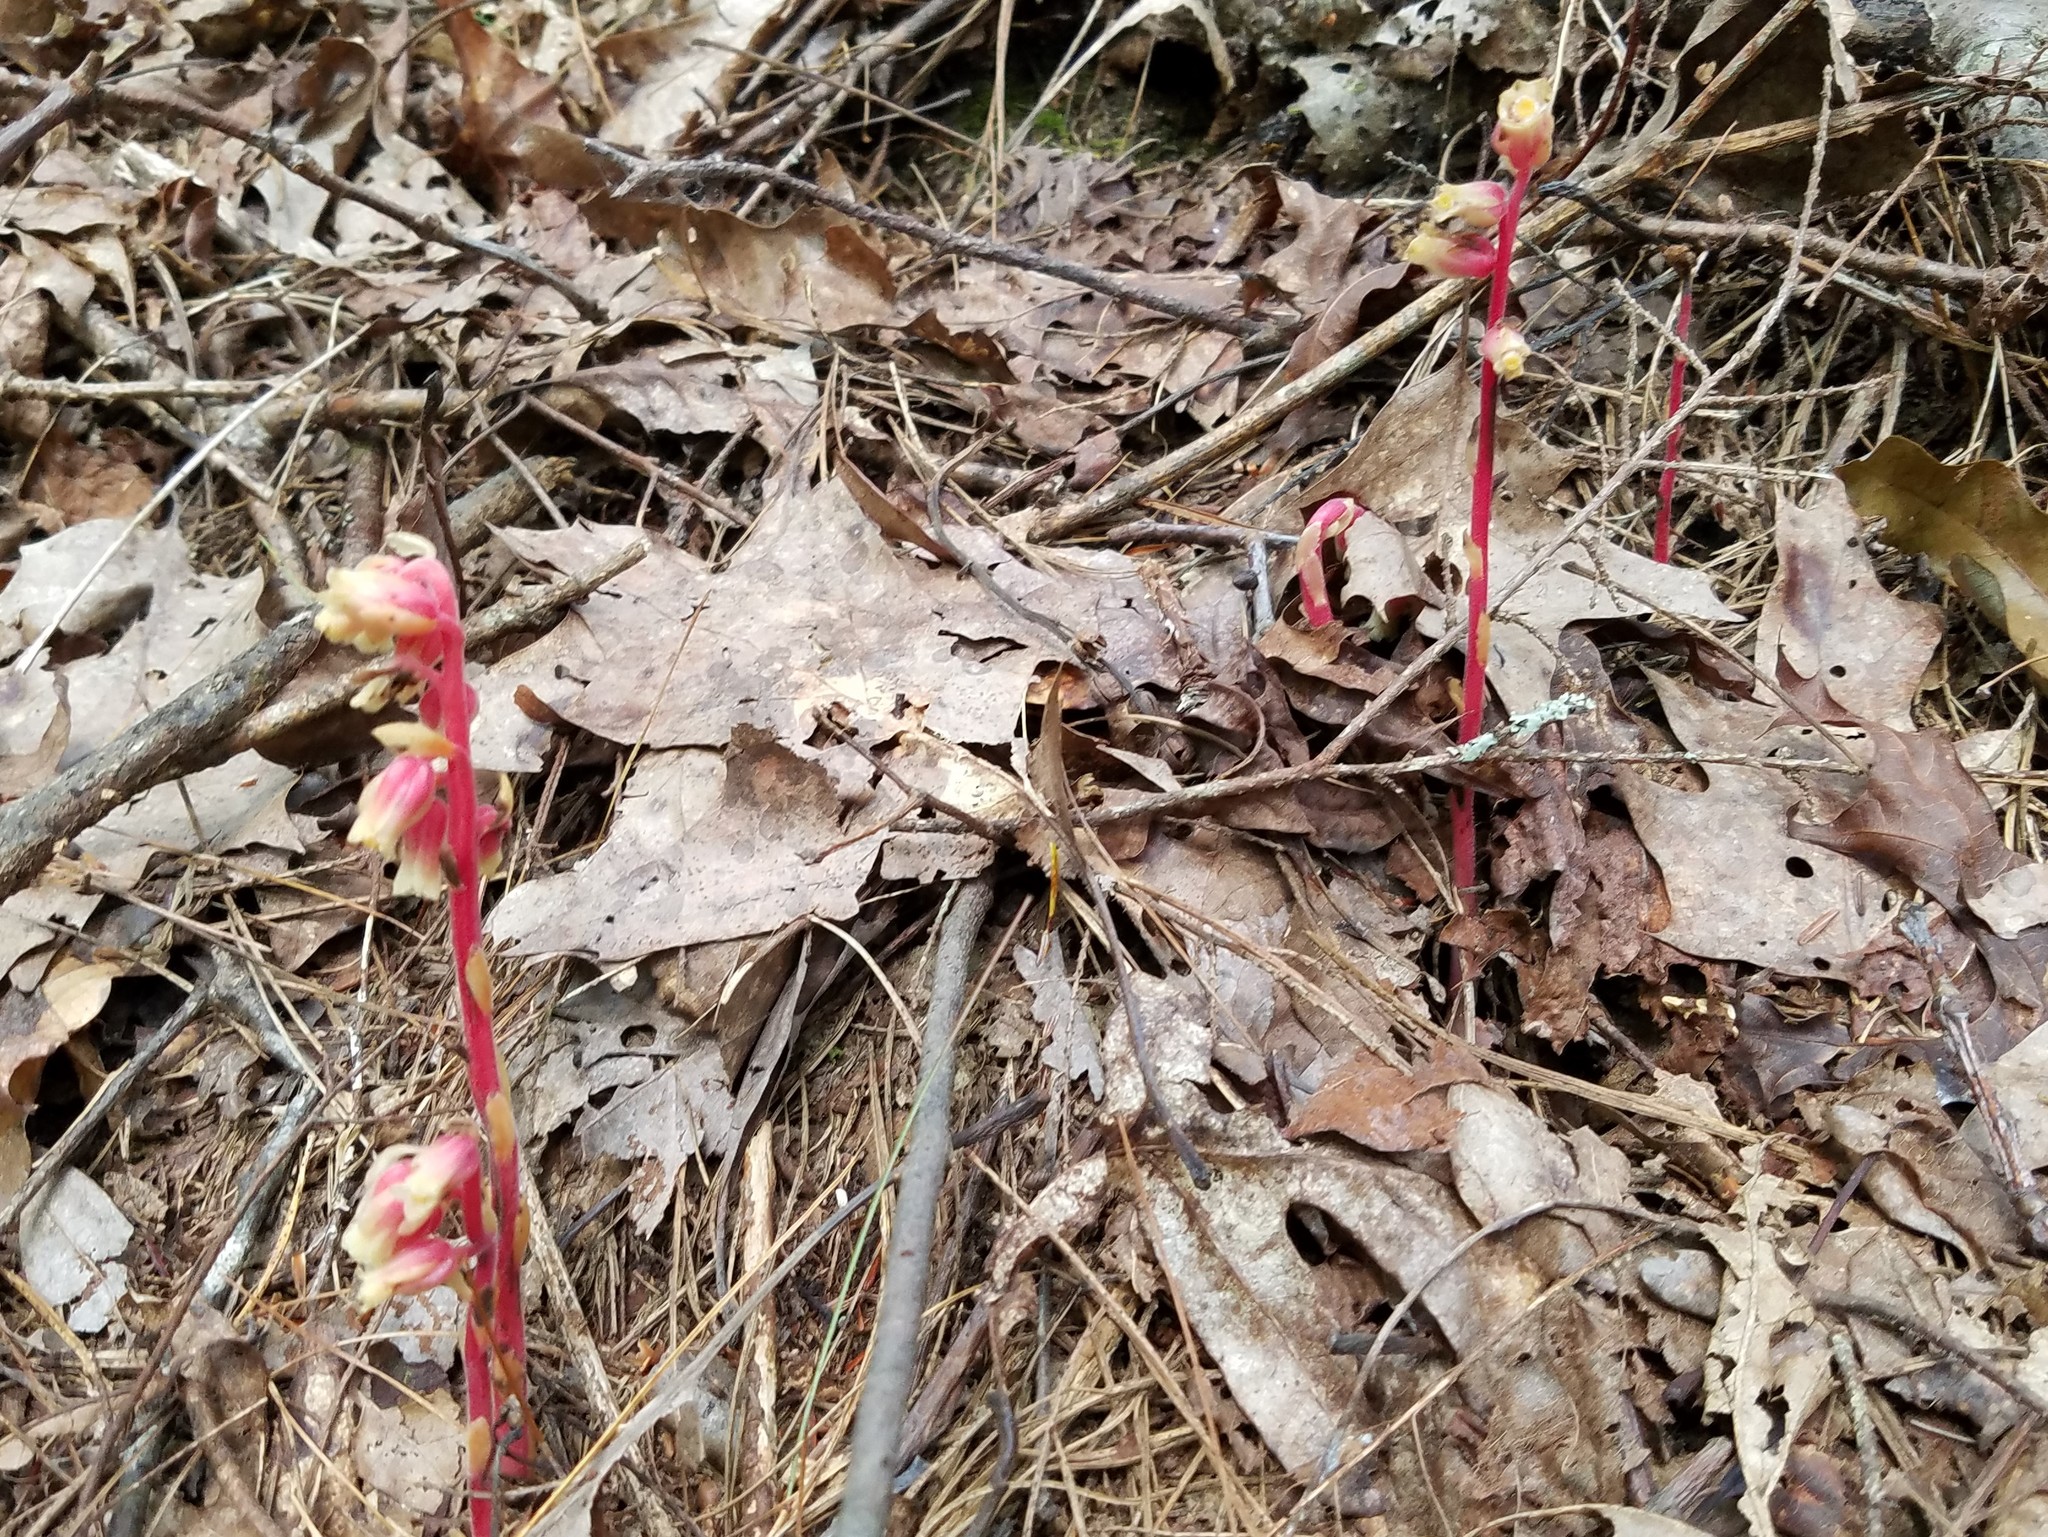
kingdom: Plantae
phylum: Tracheophyta
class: Magnoliopsida
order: Ericales
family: Ericaceae
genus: Hypopitys
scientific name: Hypopitys monotropa
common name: Yellow bird's-nest
